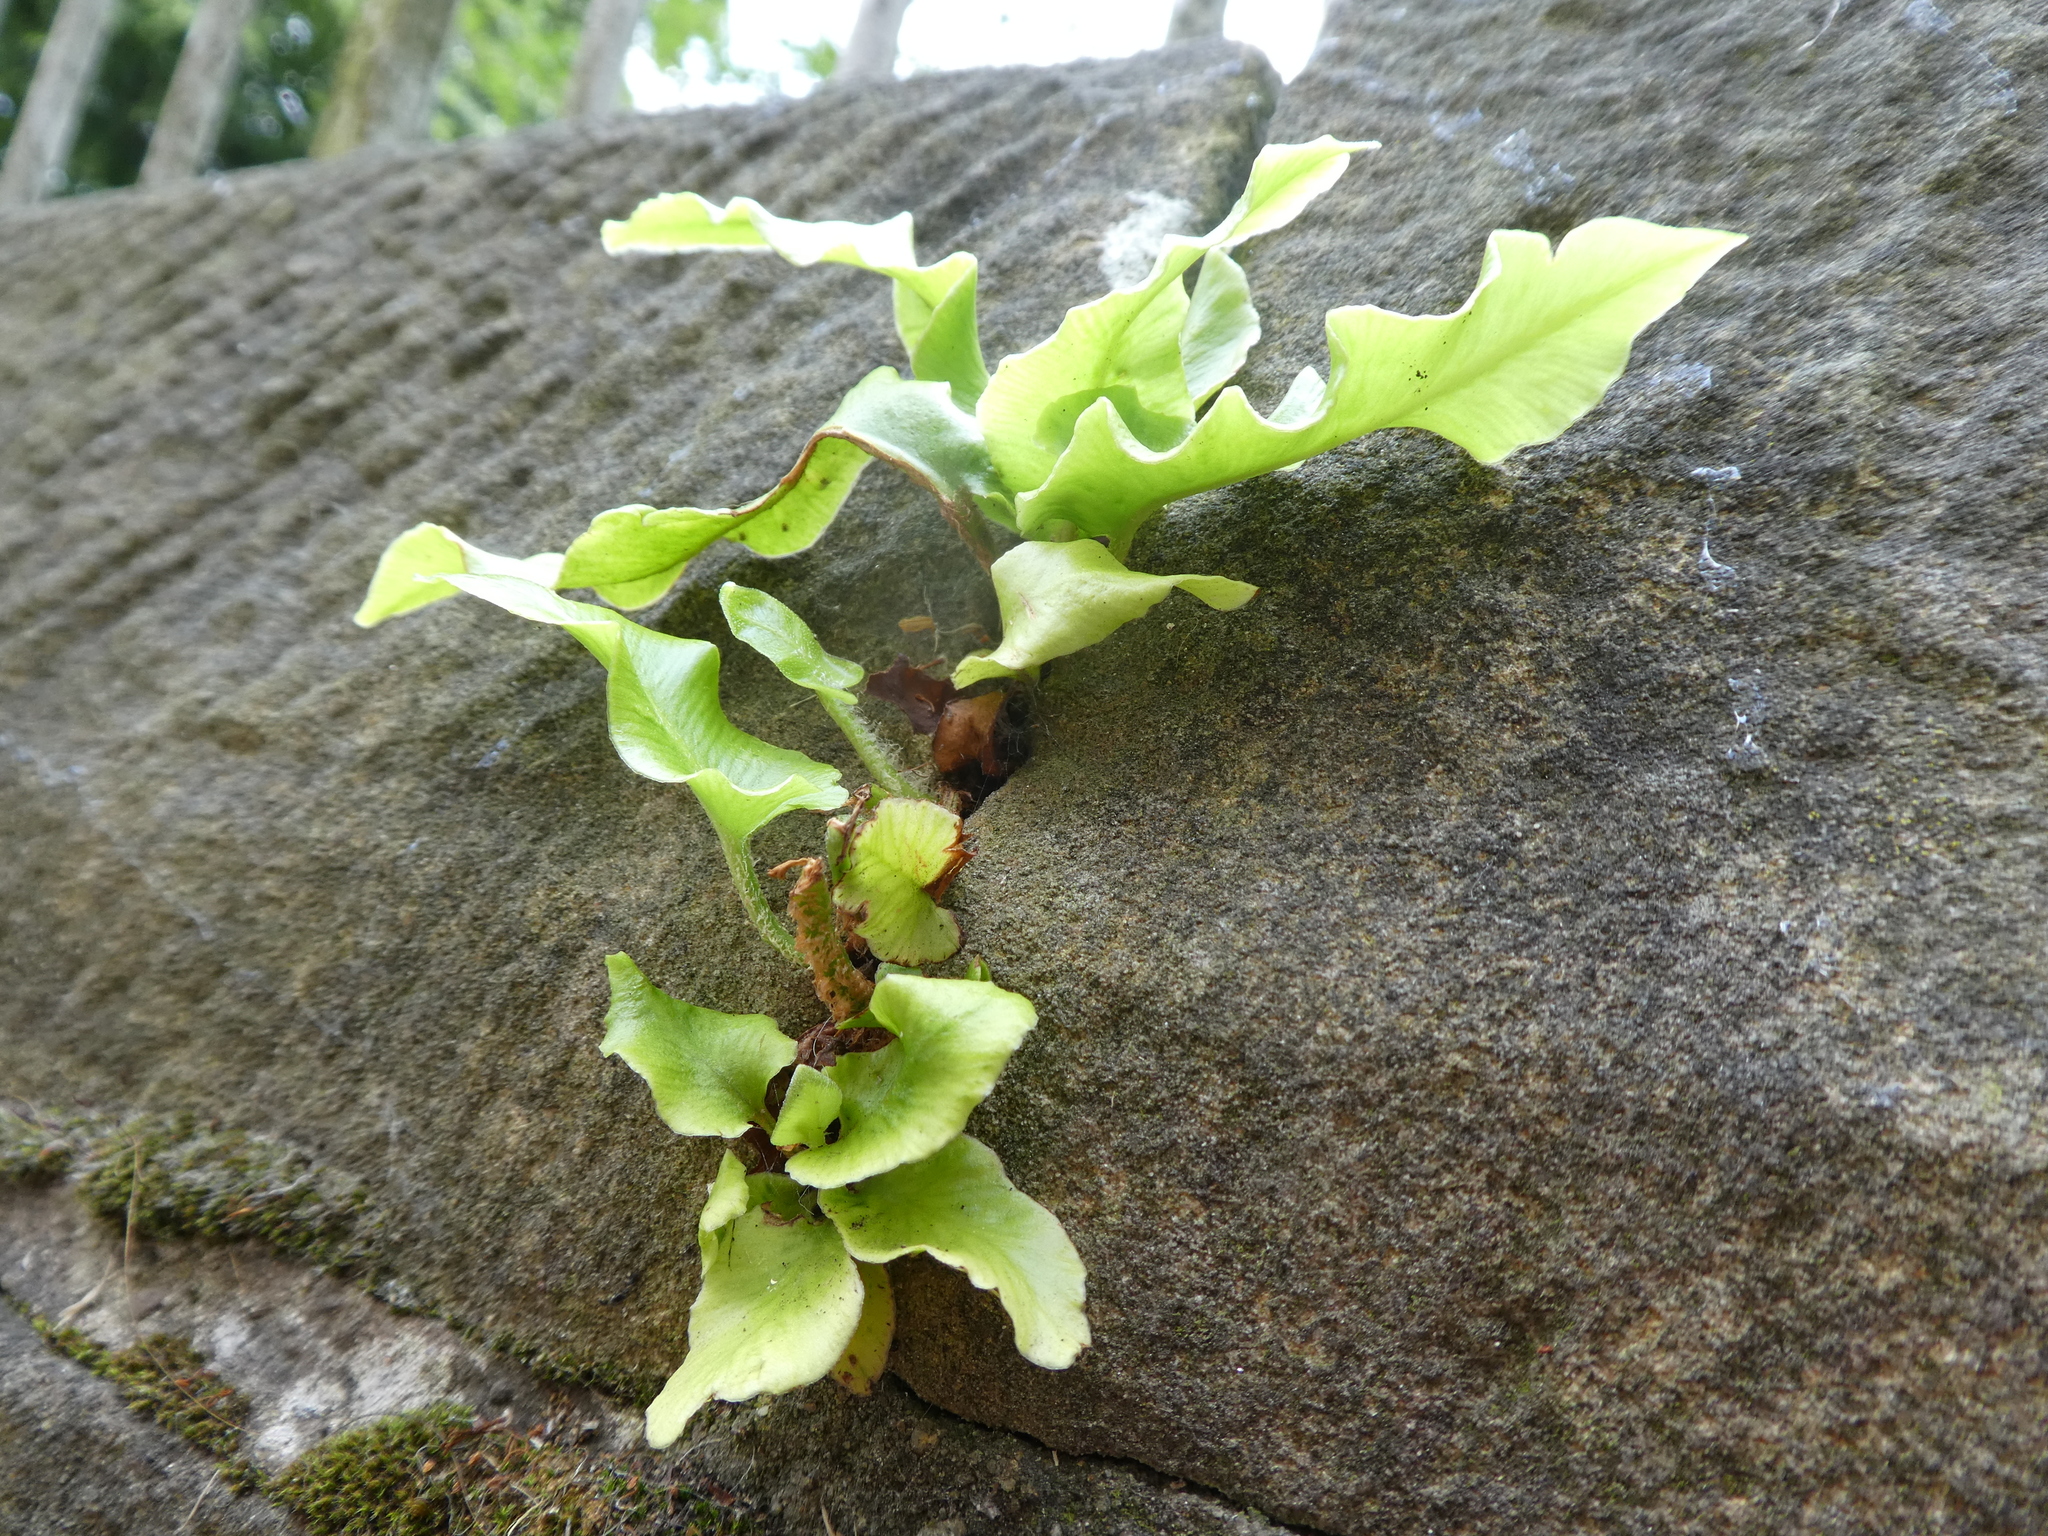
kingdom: Plantae
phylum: Tracheophyta
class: Polypodiopsida
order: Polypodiales
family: Aspleniaceae
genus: Asplenium
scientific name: Asplenium scolopendrium
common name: Hart's-tongue fern
